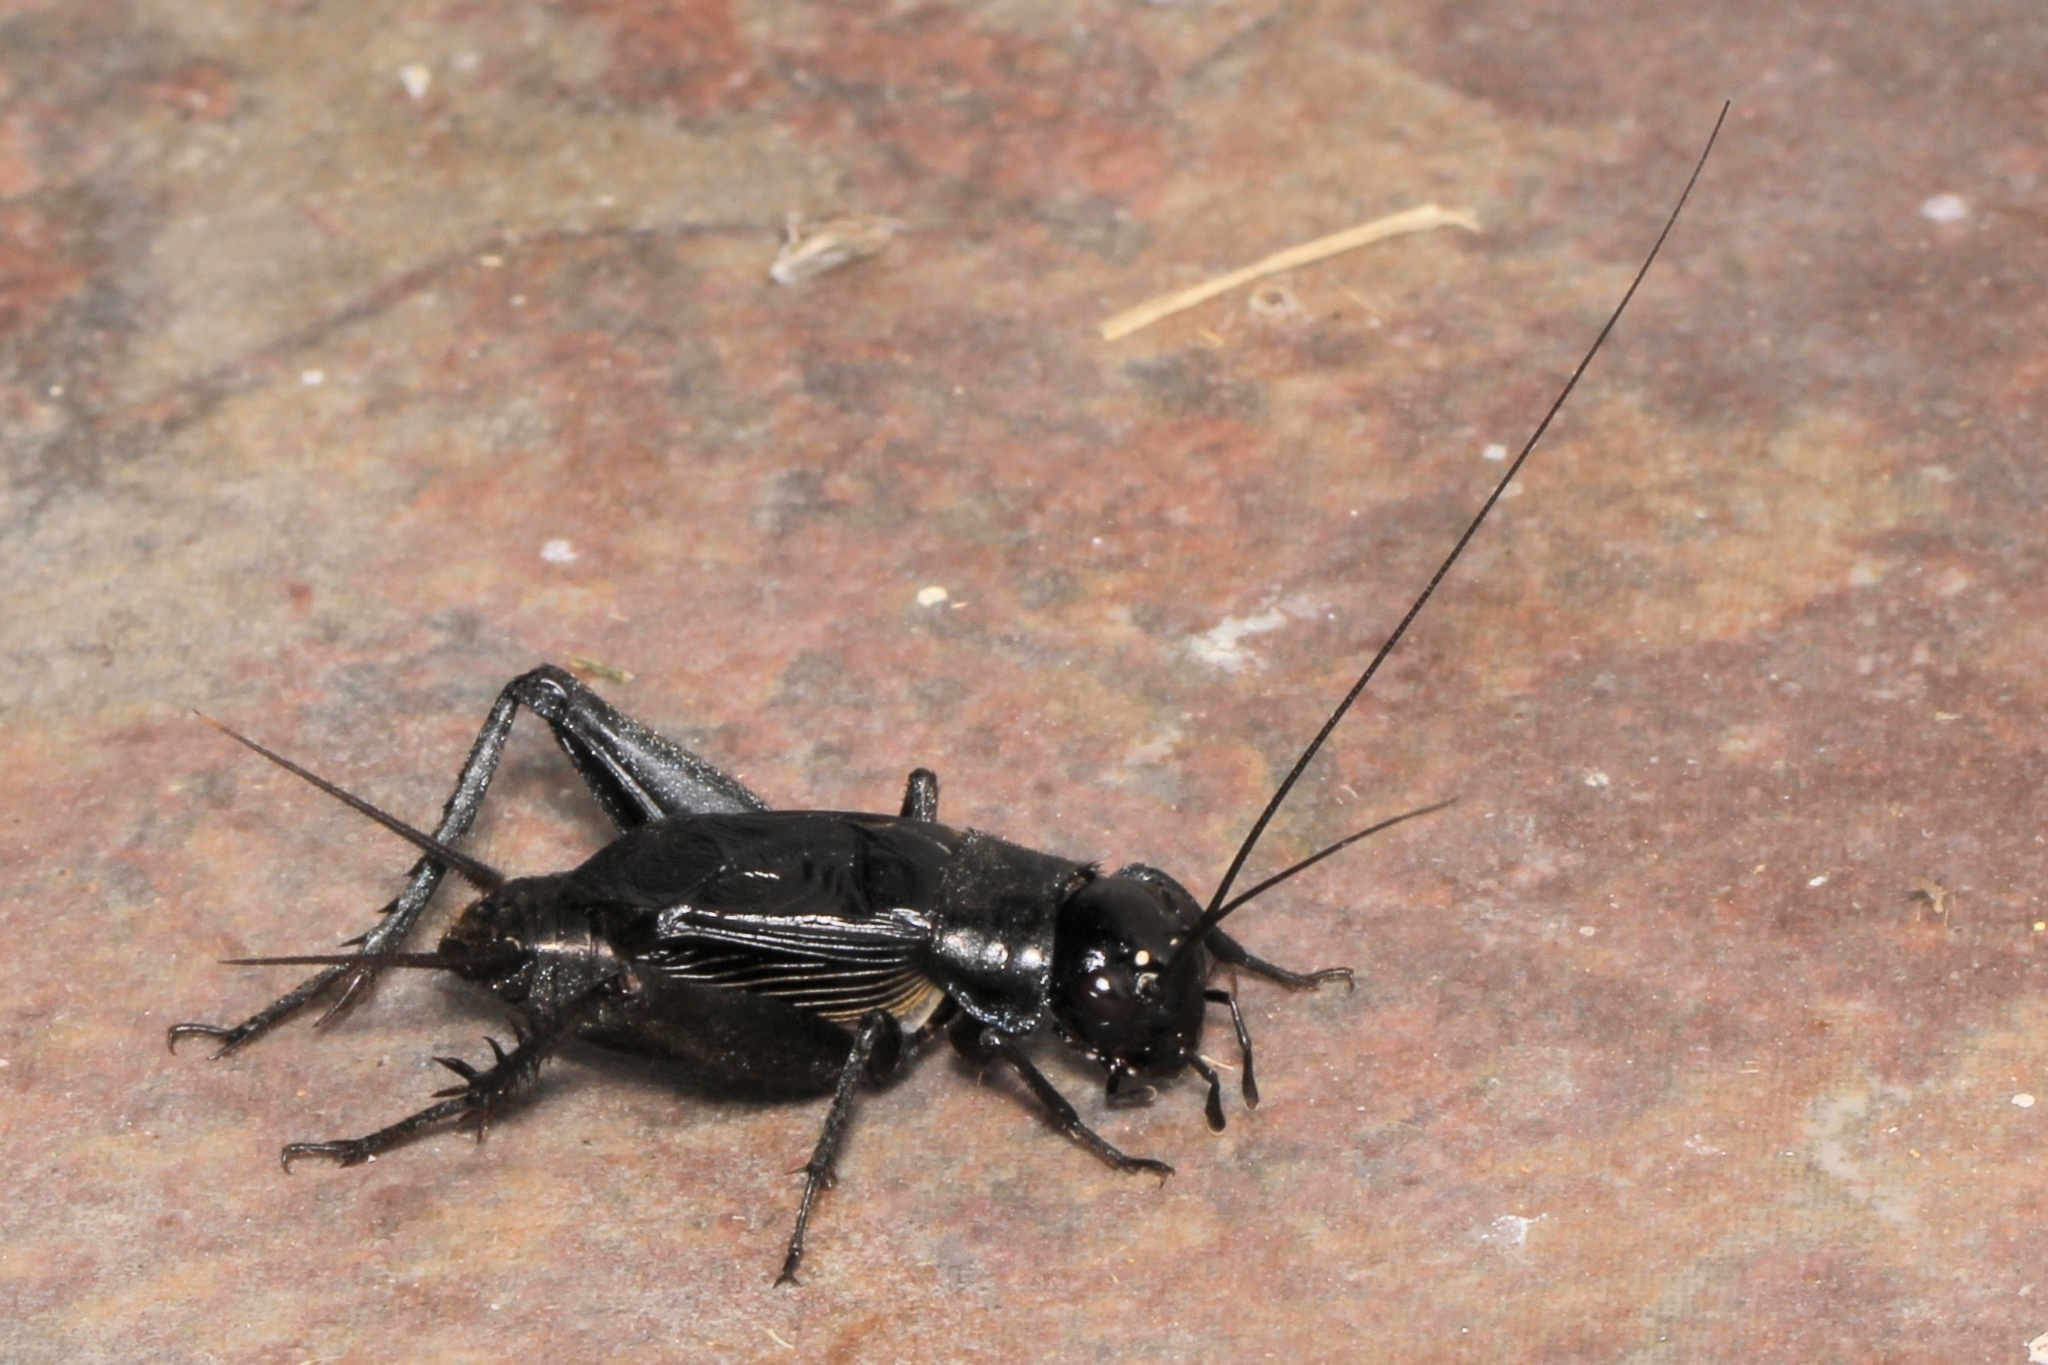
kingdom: Animalia
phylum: Arthropoda
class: Insecta
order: Orthoptera
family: Gryllidae
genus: Gryllus
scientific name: Gryllus pennsylvanicus
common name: Fall field cricket
